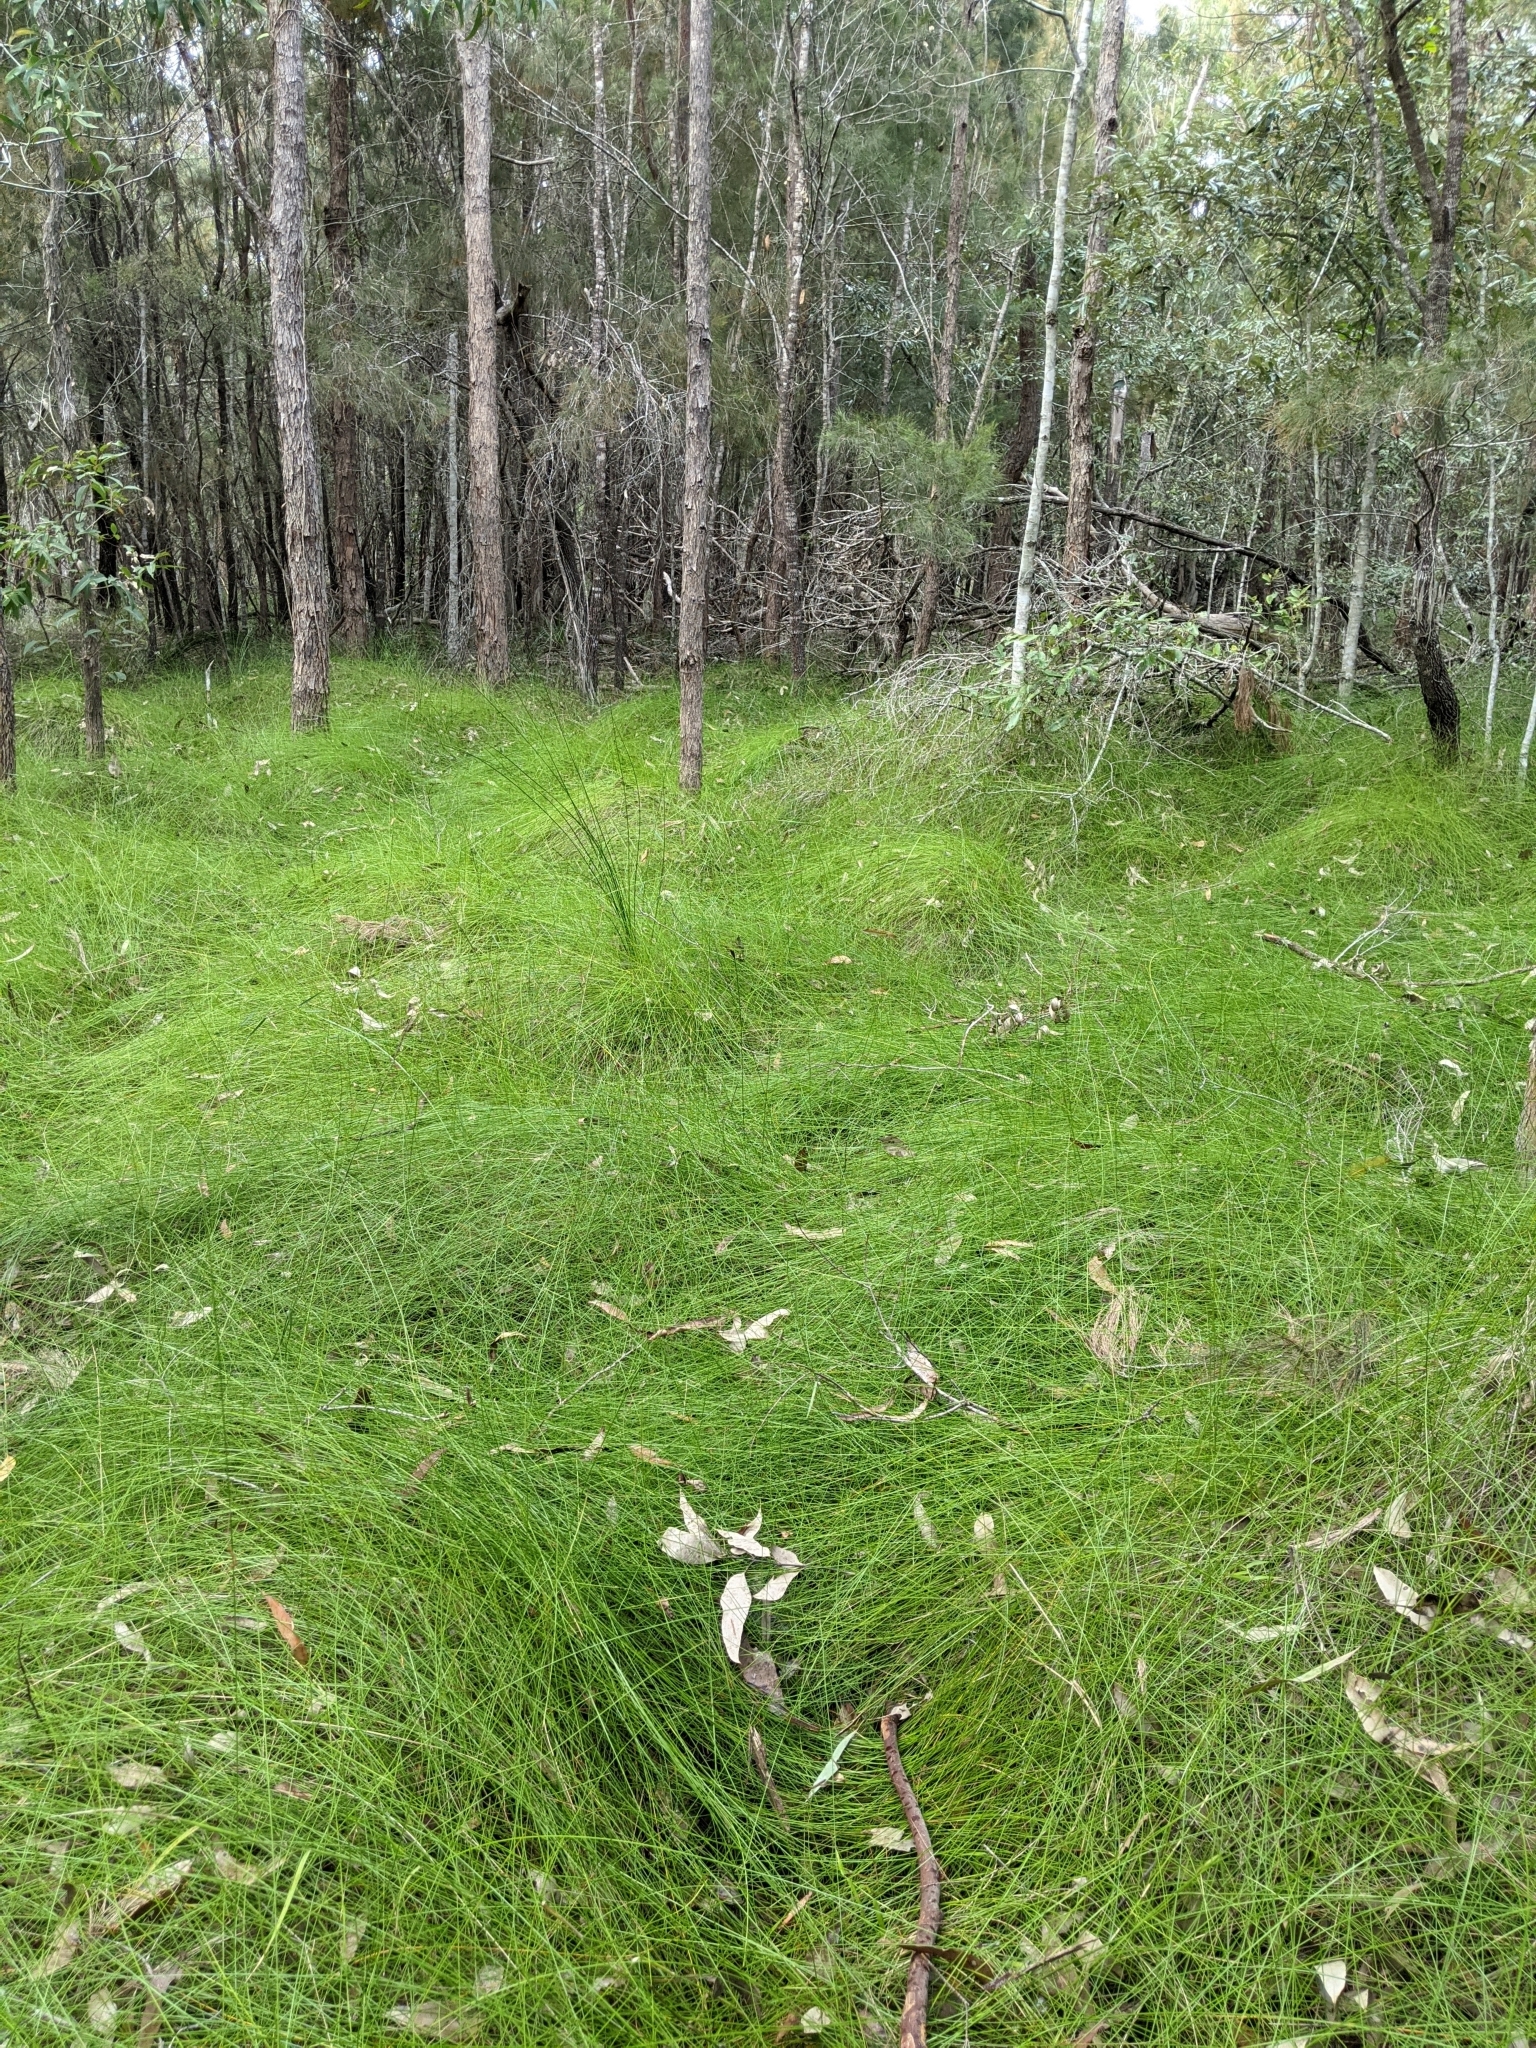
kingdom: Plantae
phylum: Tracheophyta
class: Liliopsida
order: Poales
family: Cyperaceae
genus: Ptilothrix
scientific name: Ptilothrix deusta
